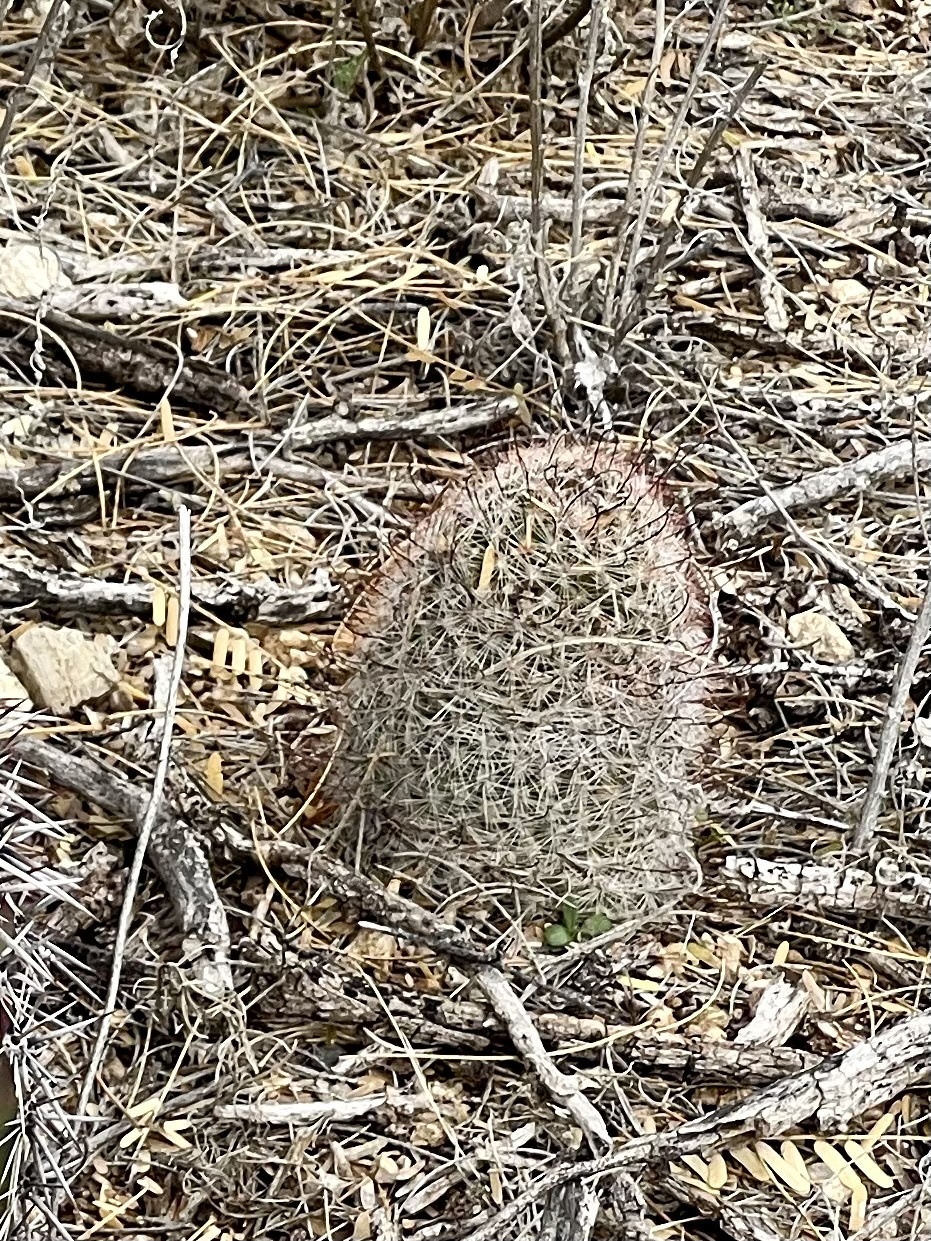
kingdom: Plantae
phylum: Tracheophyta
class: Magnoliopsida
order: Caryophyllales
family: Cactaceae
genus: Cochemiea
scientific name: Cochemiea grahamii
